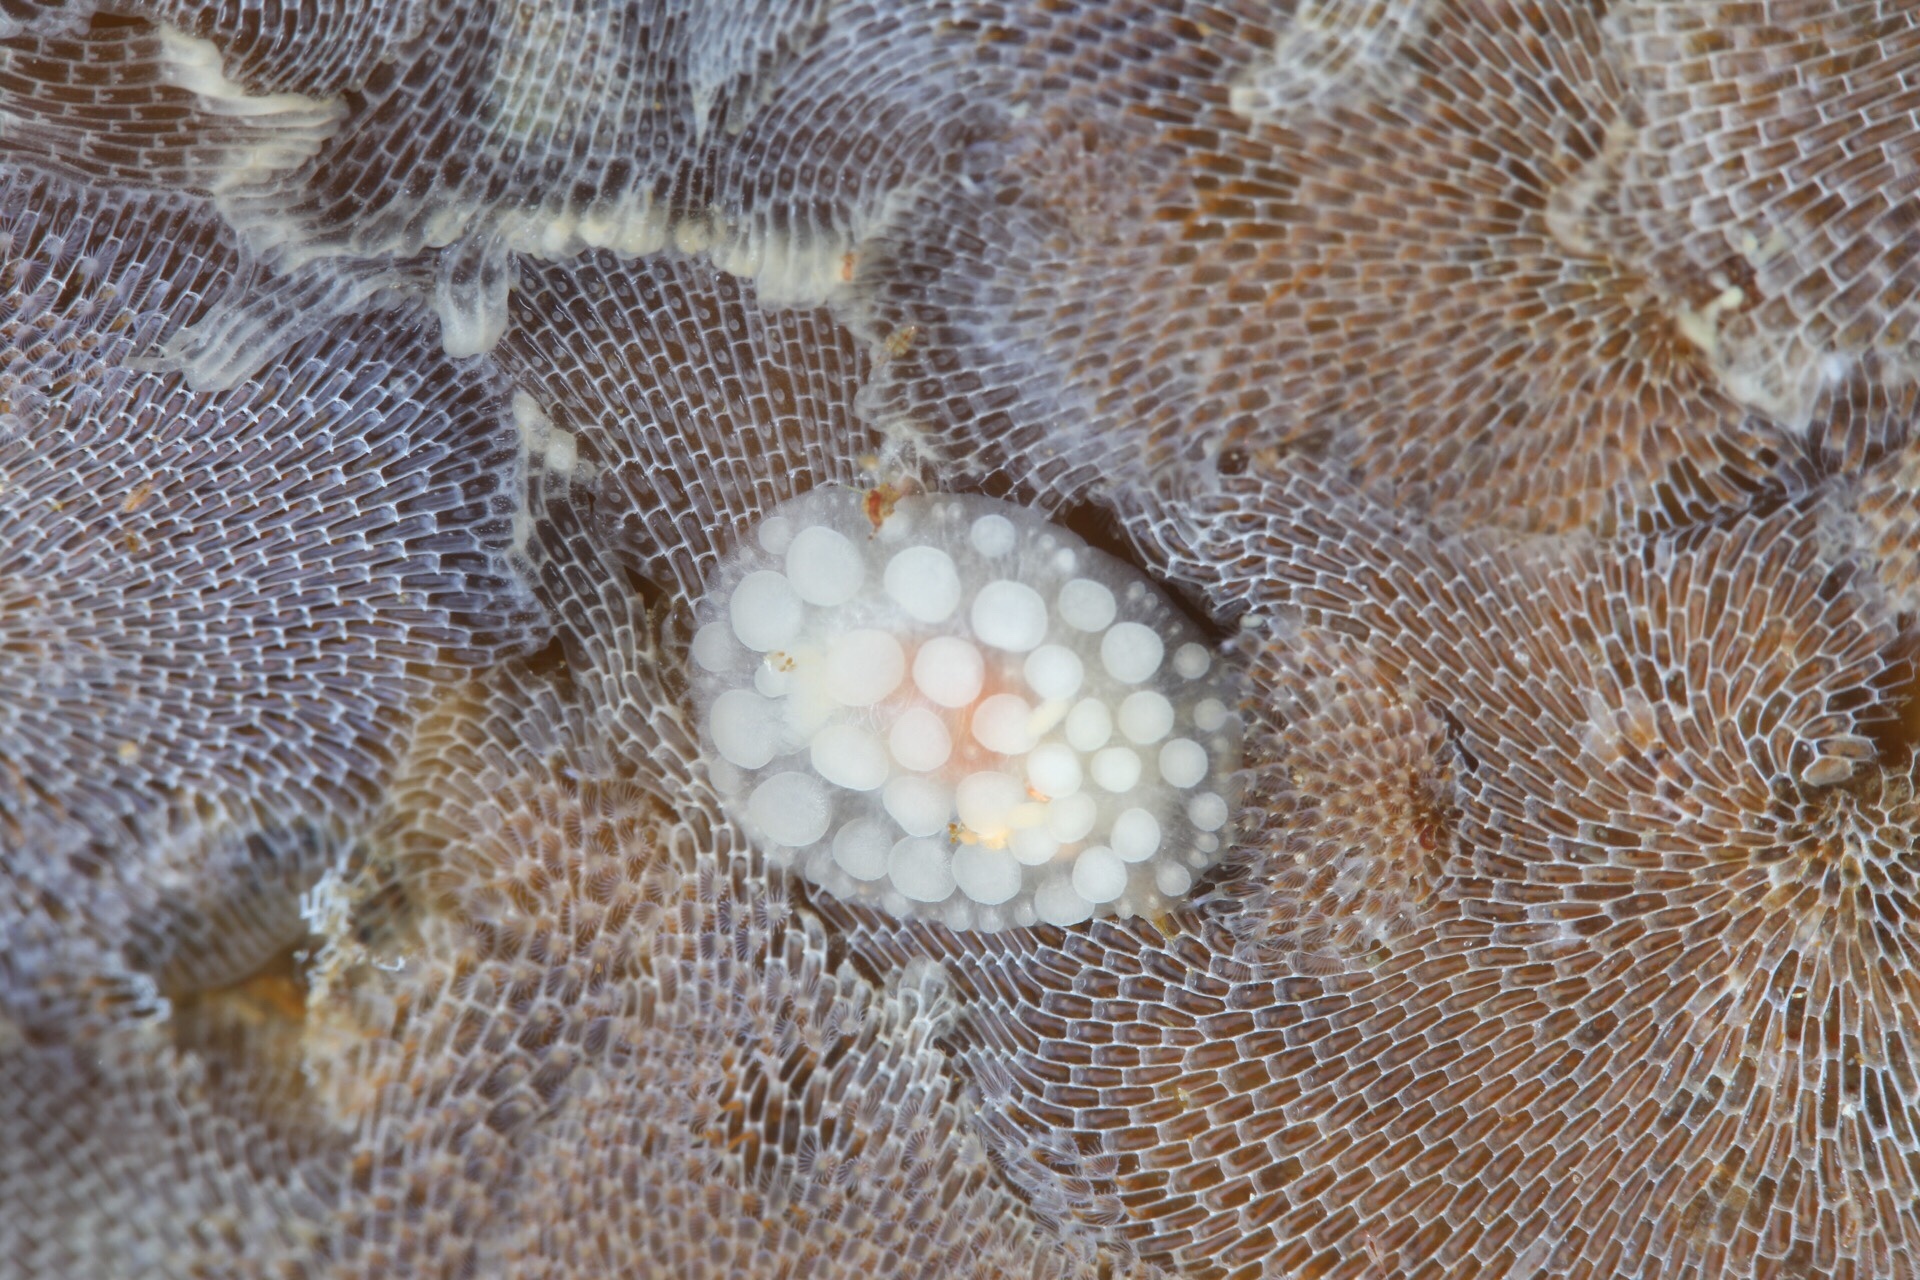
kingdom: Animalia
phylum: Mollusca
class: Gastropoda
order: Nudibranchia
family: Onchidorididae
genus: Adalaria
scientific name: Adalaria loveni
